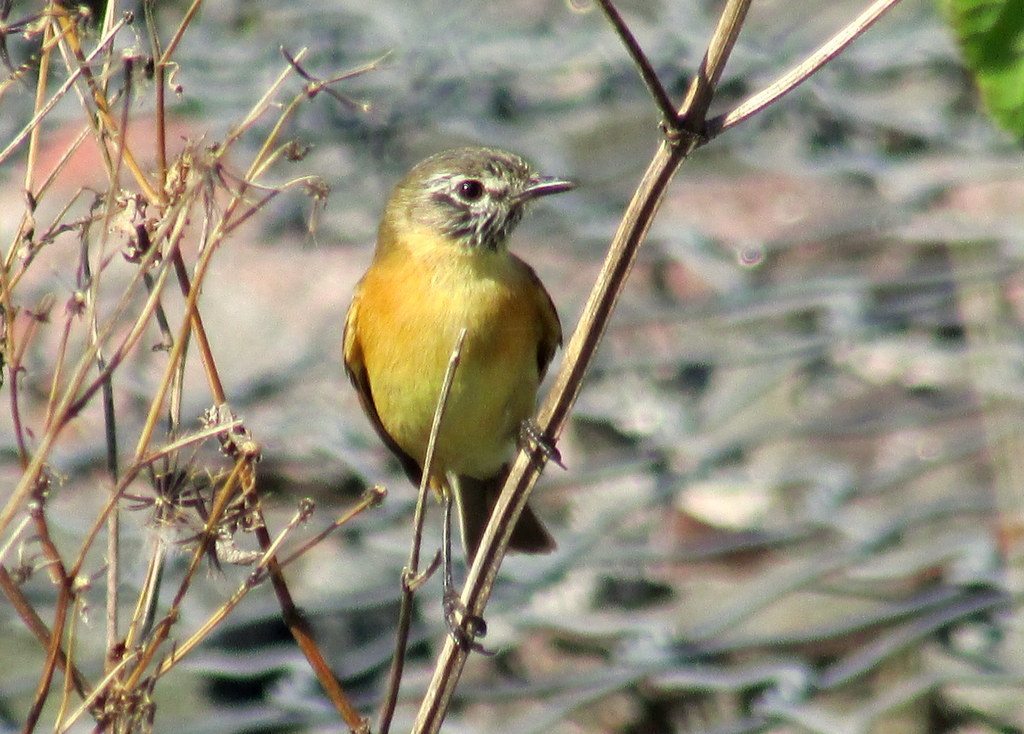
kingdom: Animalia
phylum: Chordata
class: Aves
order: Passeriformes
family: Tyrannidae
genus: Polystictus
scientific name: Polystictus pectoralis
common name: Bearded tachuri
